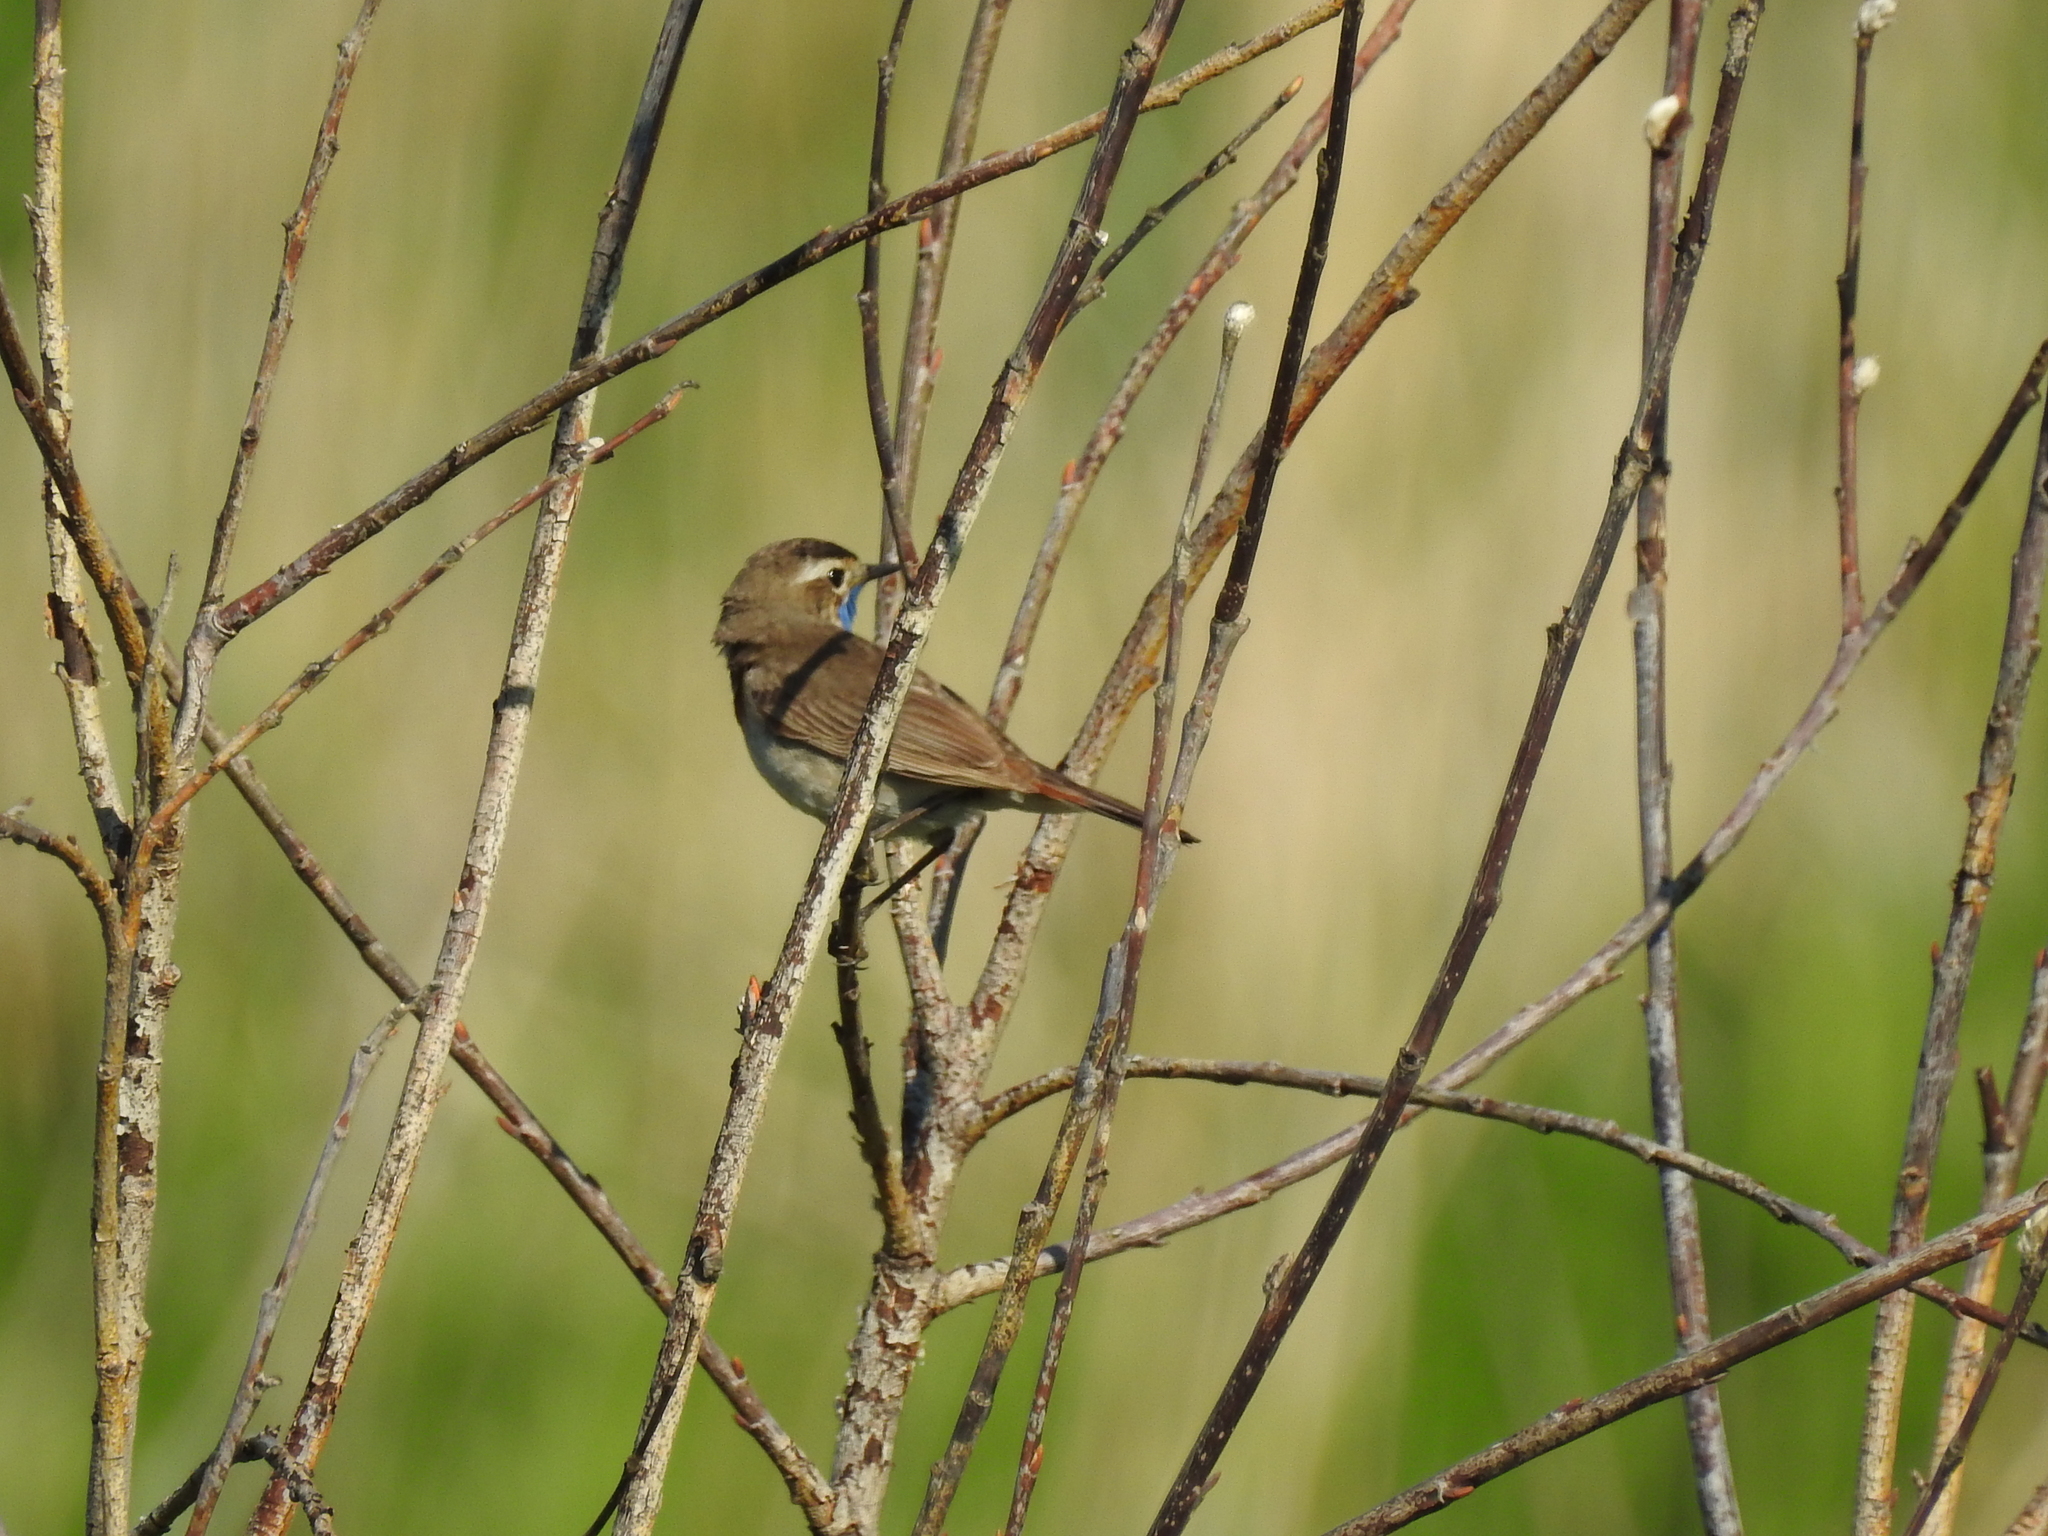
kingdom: Animalia
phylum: Chordata
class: Aves
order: Passeriformes
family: Muscicapidae
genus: Luscinia
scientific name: Luscinia svecica
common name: Bluethroat
